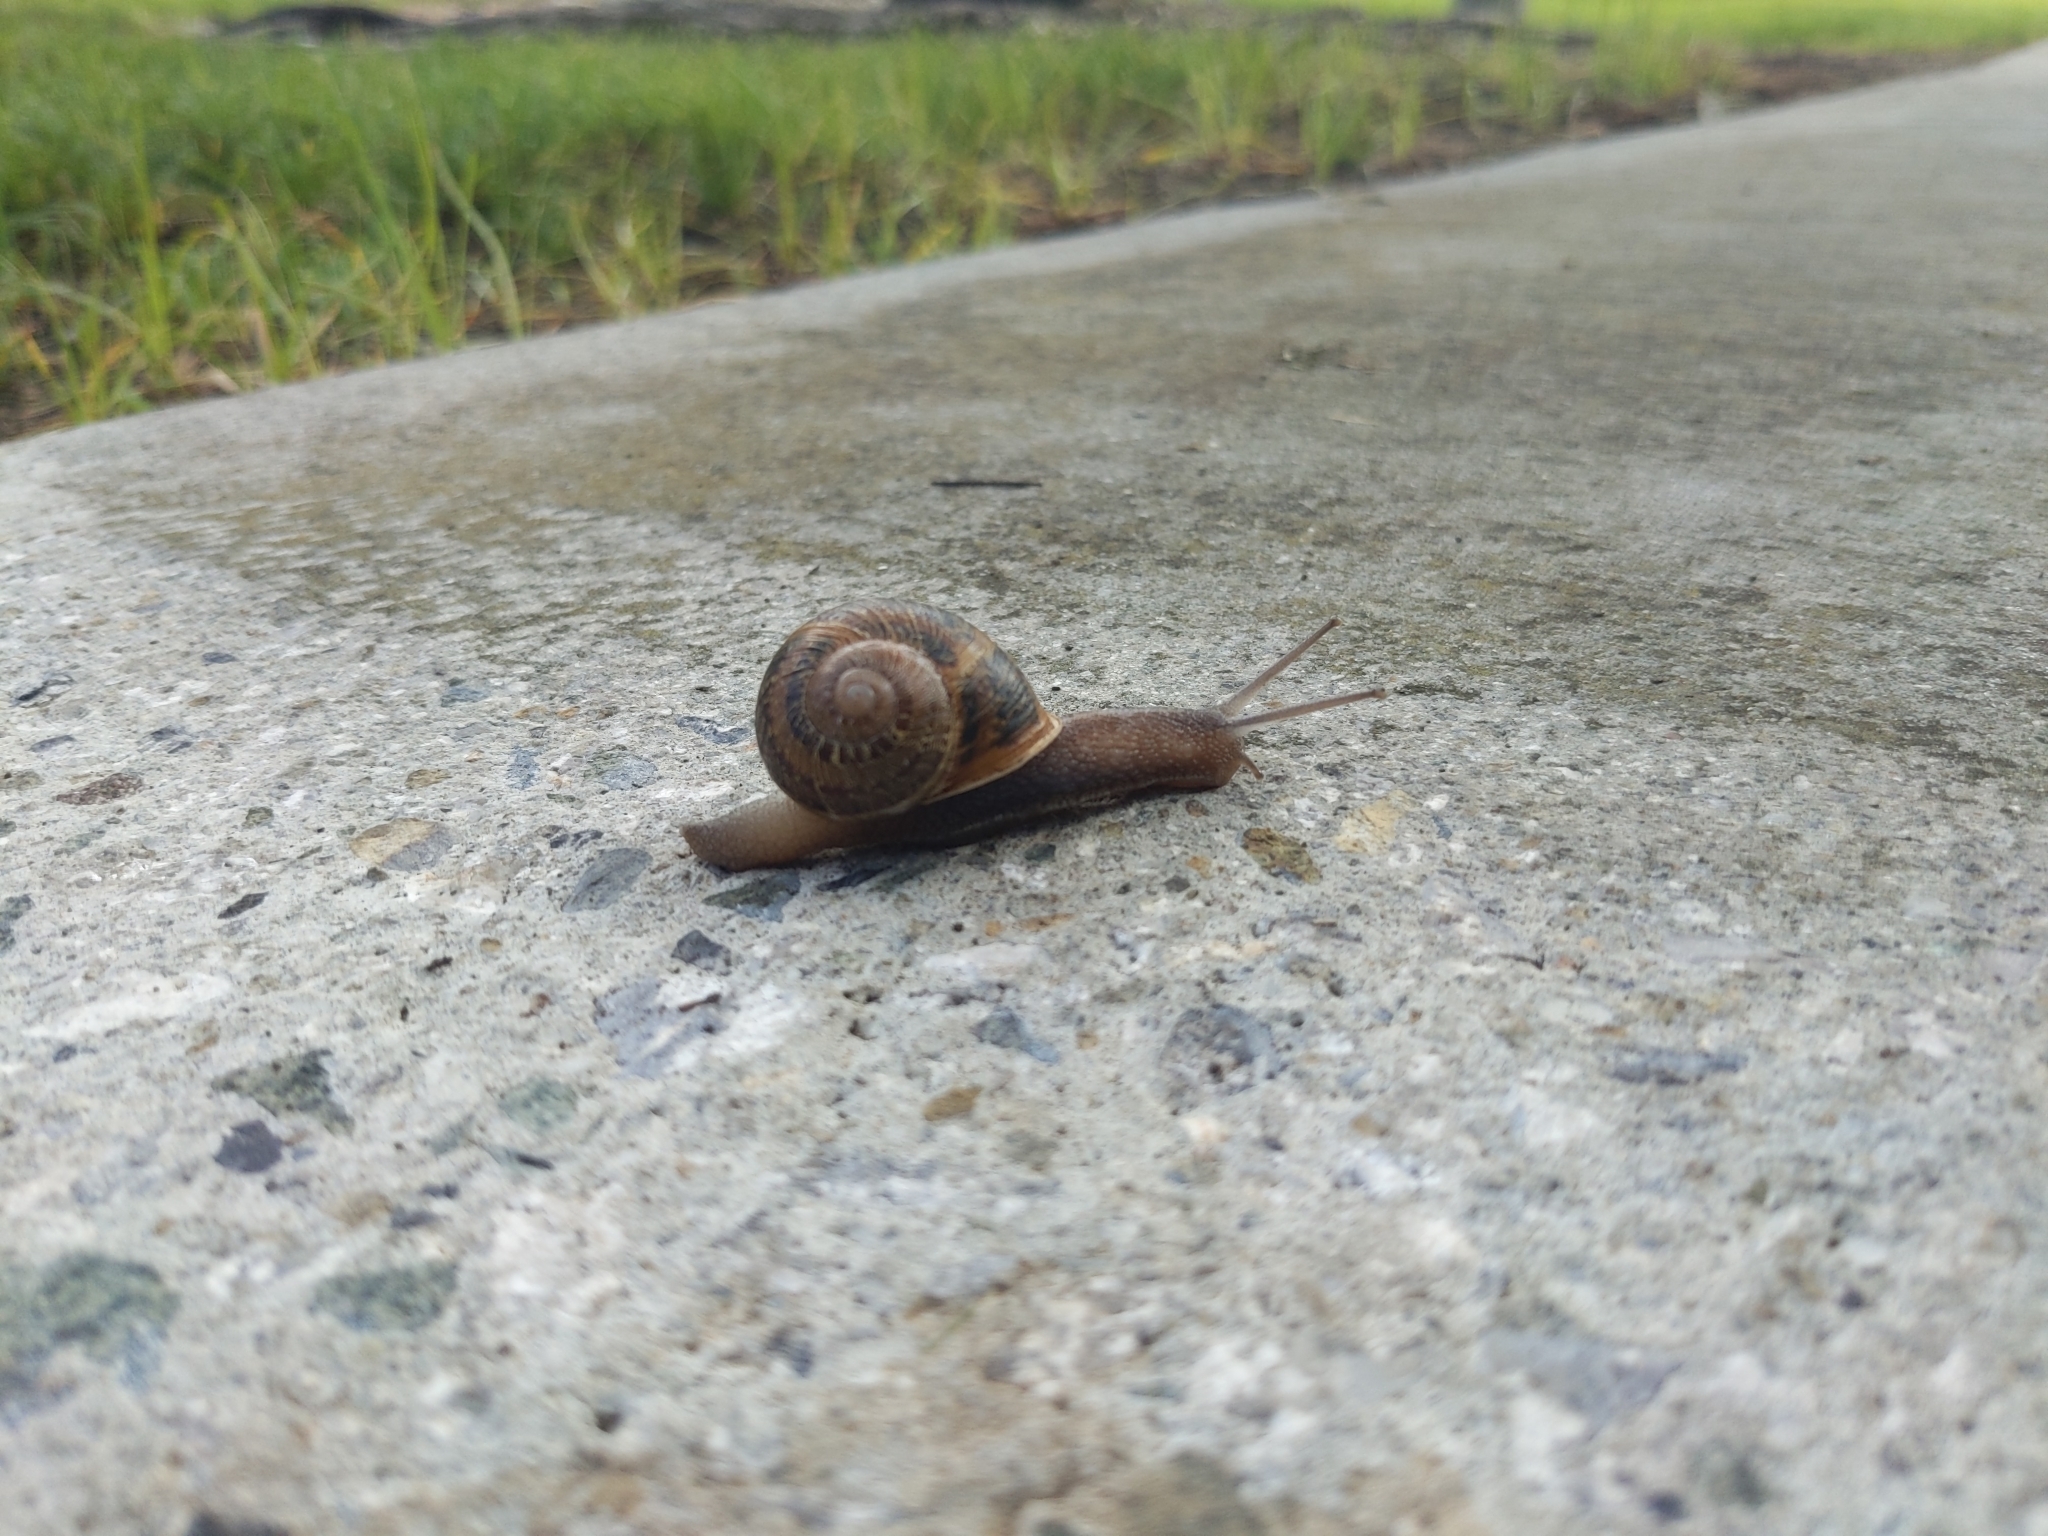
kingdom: Animalia
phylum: Mollusca
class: Gastropoda
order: Stylommatophora
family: Helicidae
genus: Cornu
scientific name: Cornu aspersum
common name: Brown garden snail
